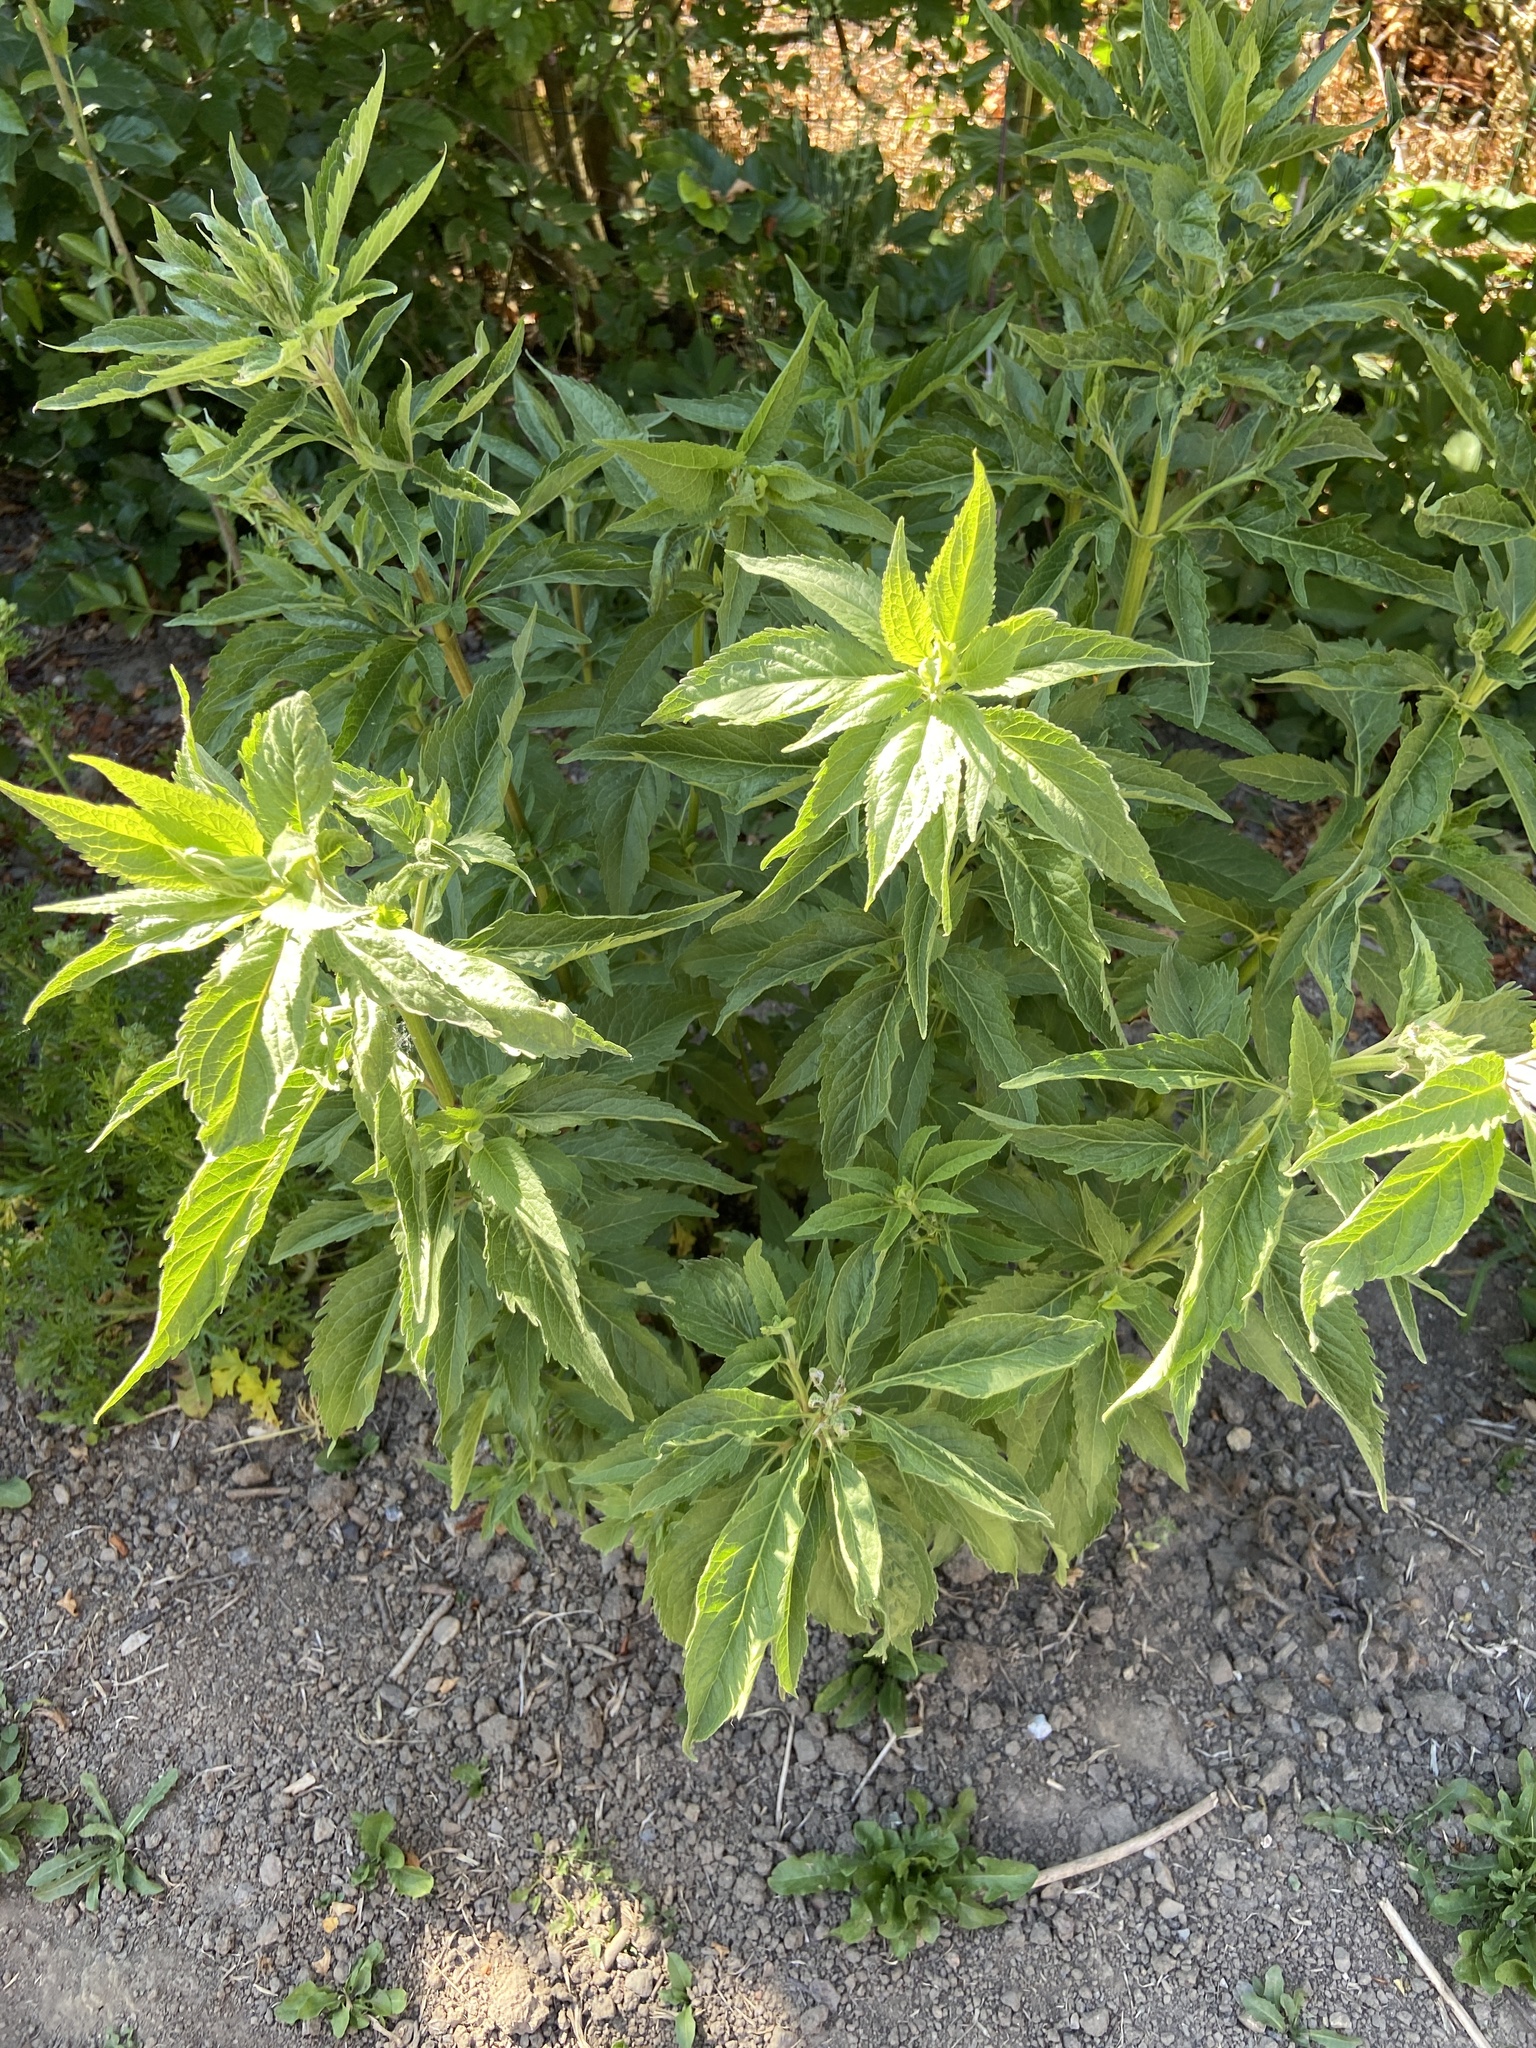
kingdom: Plantae
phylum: Tracheophyta
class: Magnoliopsida
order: Asterales
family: Asteraceae
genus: Eupatorium
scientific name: Eupatorium cannabinum
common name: Hemp-agrimony
